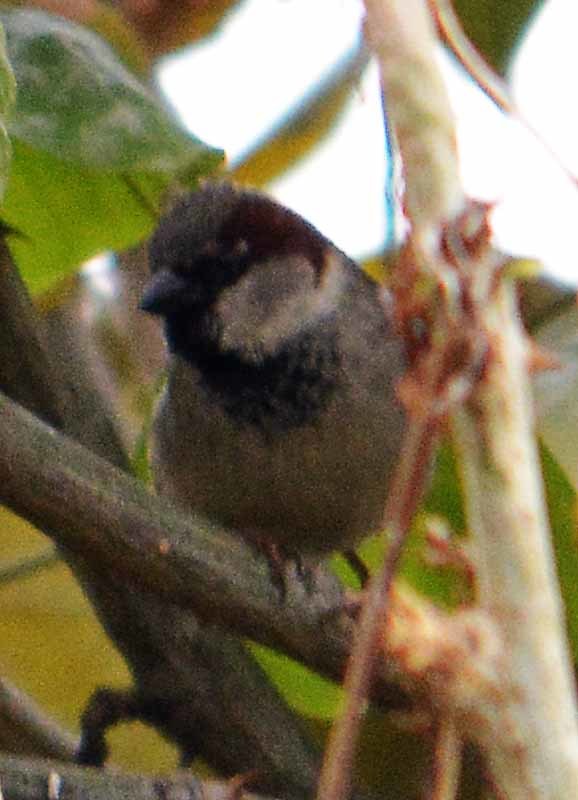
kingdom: Animalia
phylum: Chordata
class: Aves
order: Passeriformes
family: Passeridae
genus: Passer
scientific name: Passer domesticus
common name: House sparrow
